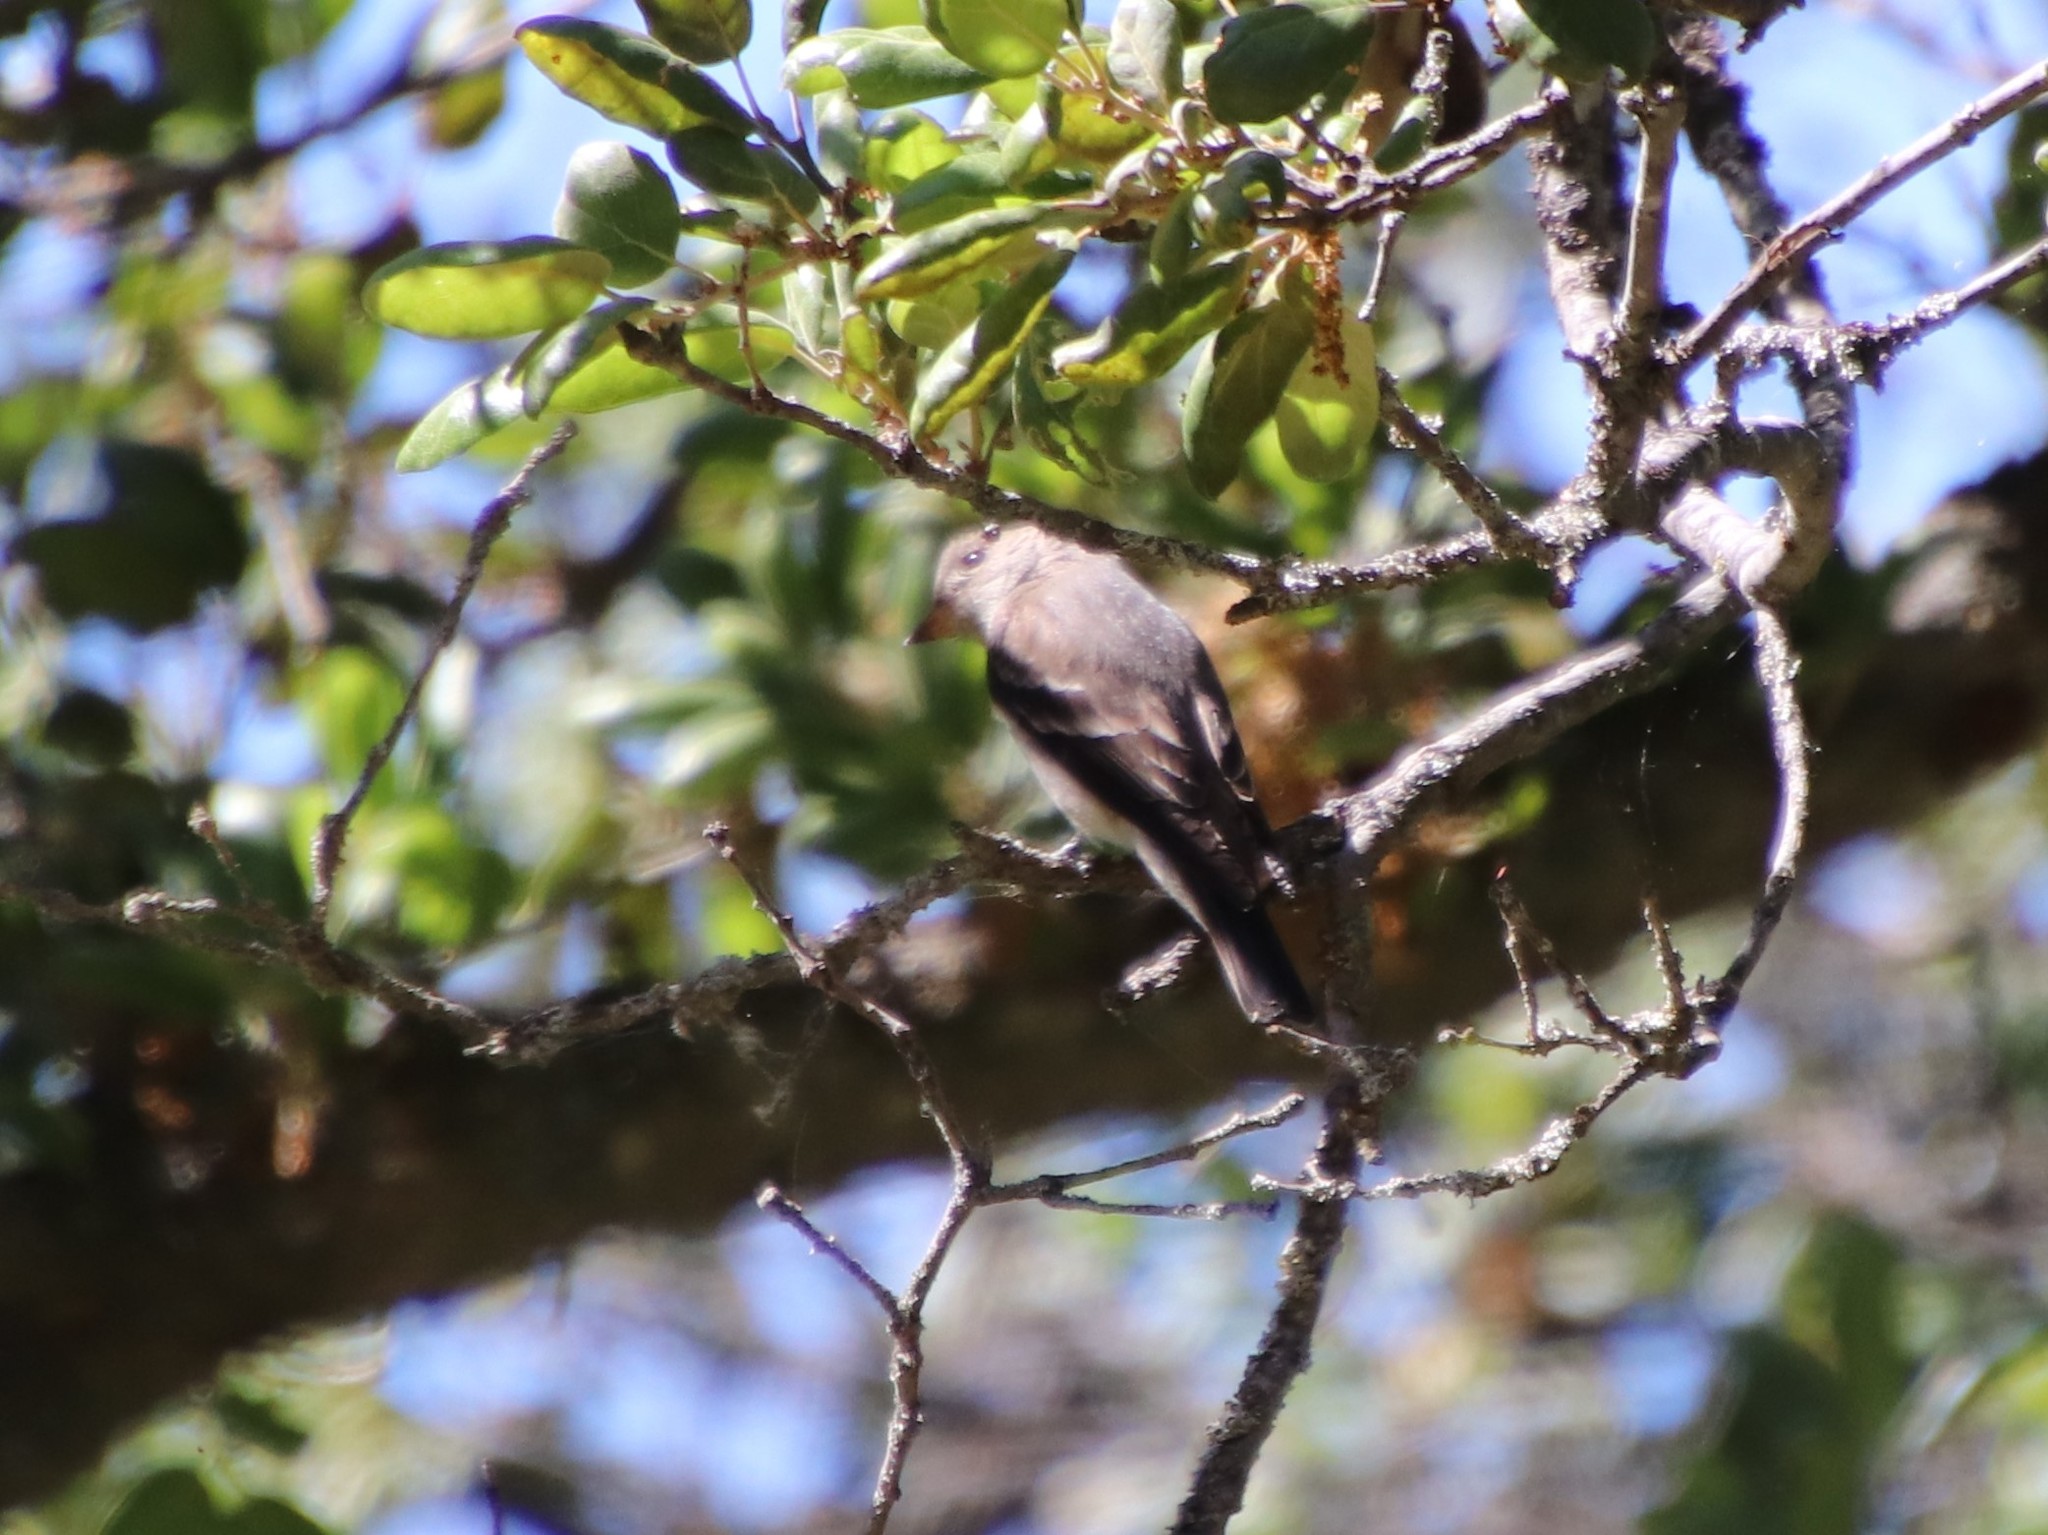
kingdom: Animalia
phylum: Chordata
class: Aves
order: Passeriformes
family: Tyrannidae
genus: Contopus
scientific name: Contopus sordidulus
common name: Western wood-pewee
